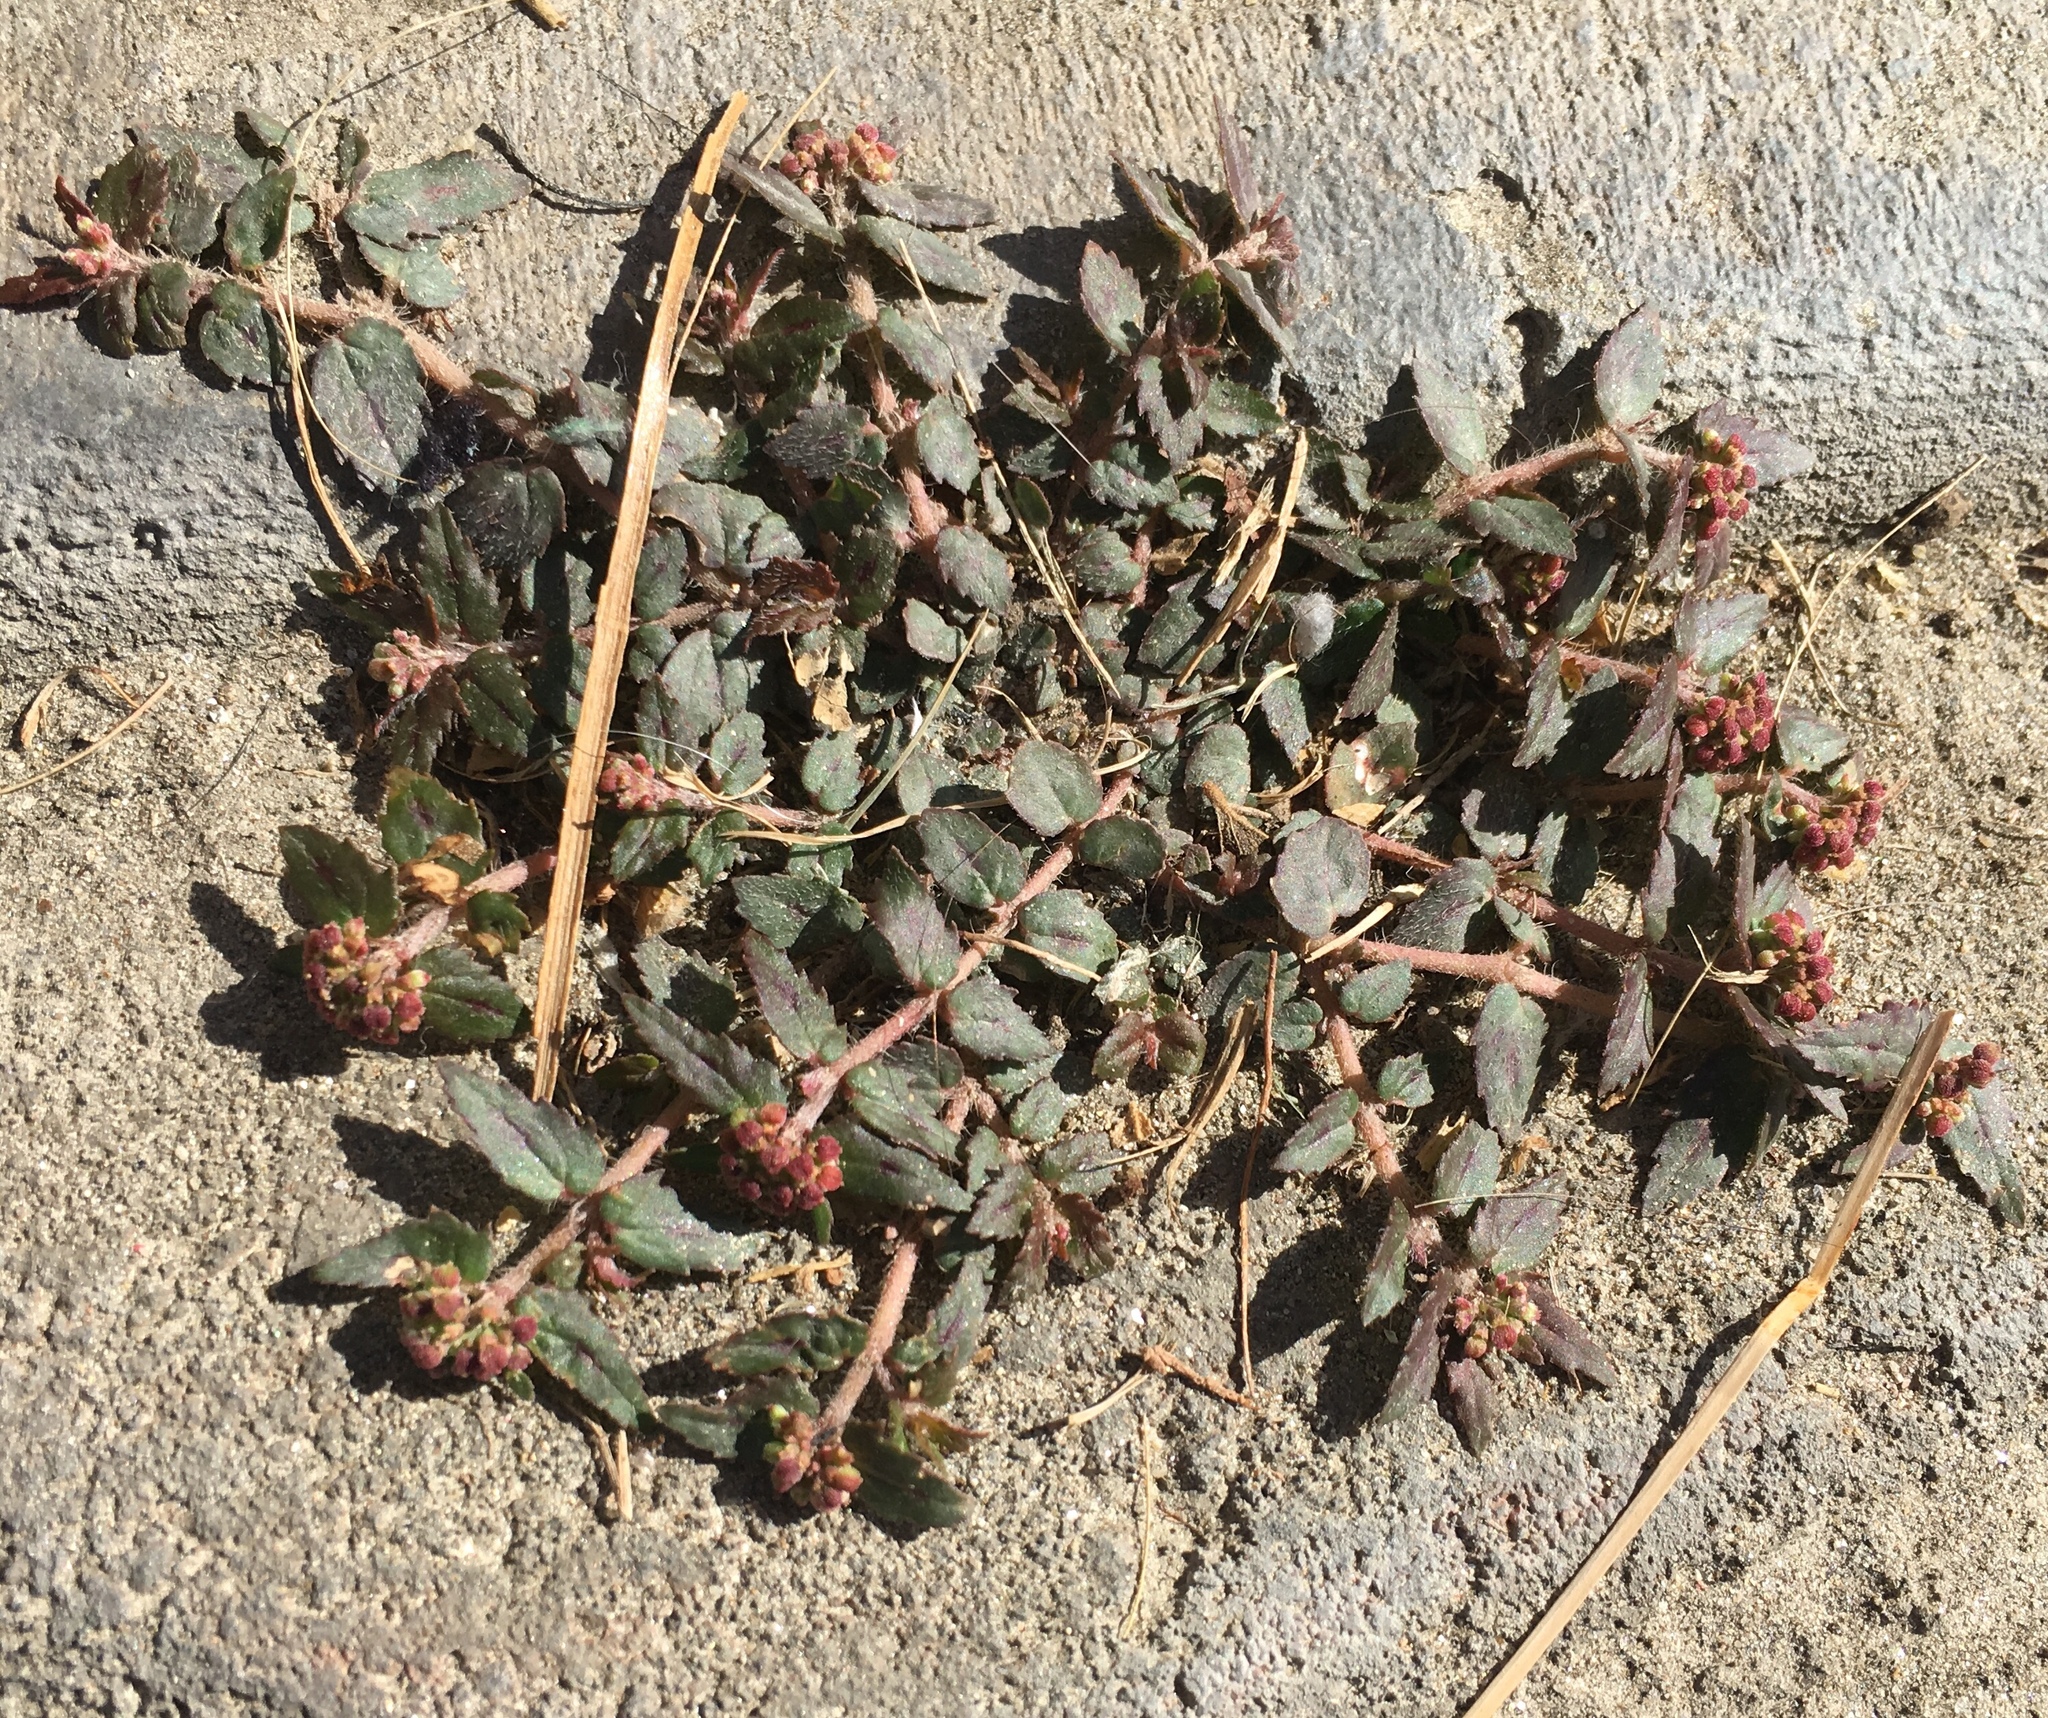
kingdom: Plantae
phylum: Tracheophyta
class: Magnoliopsida
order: Malpighiales
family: Euphorbiaceae
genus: Euphorbia
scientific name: Euphorbia ophthalmica
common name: Florida hammock sandmat
